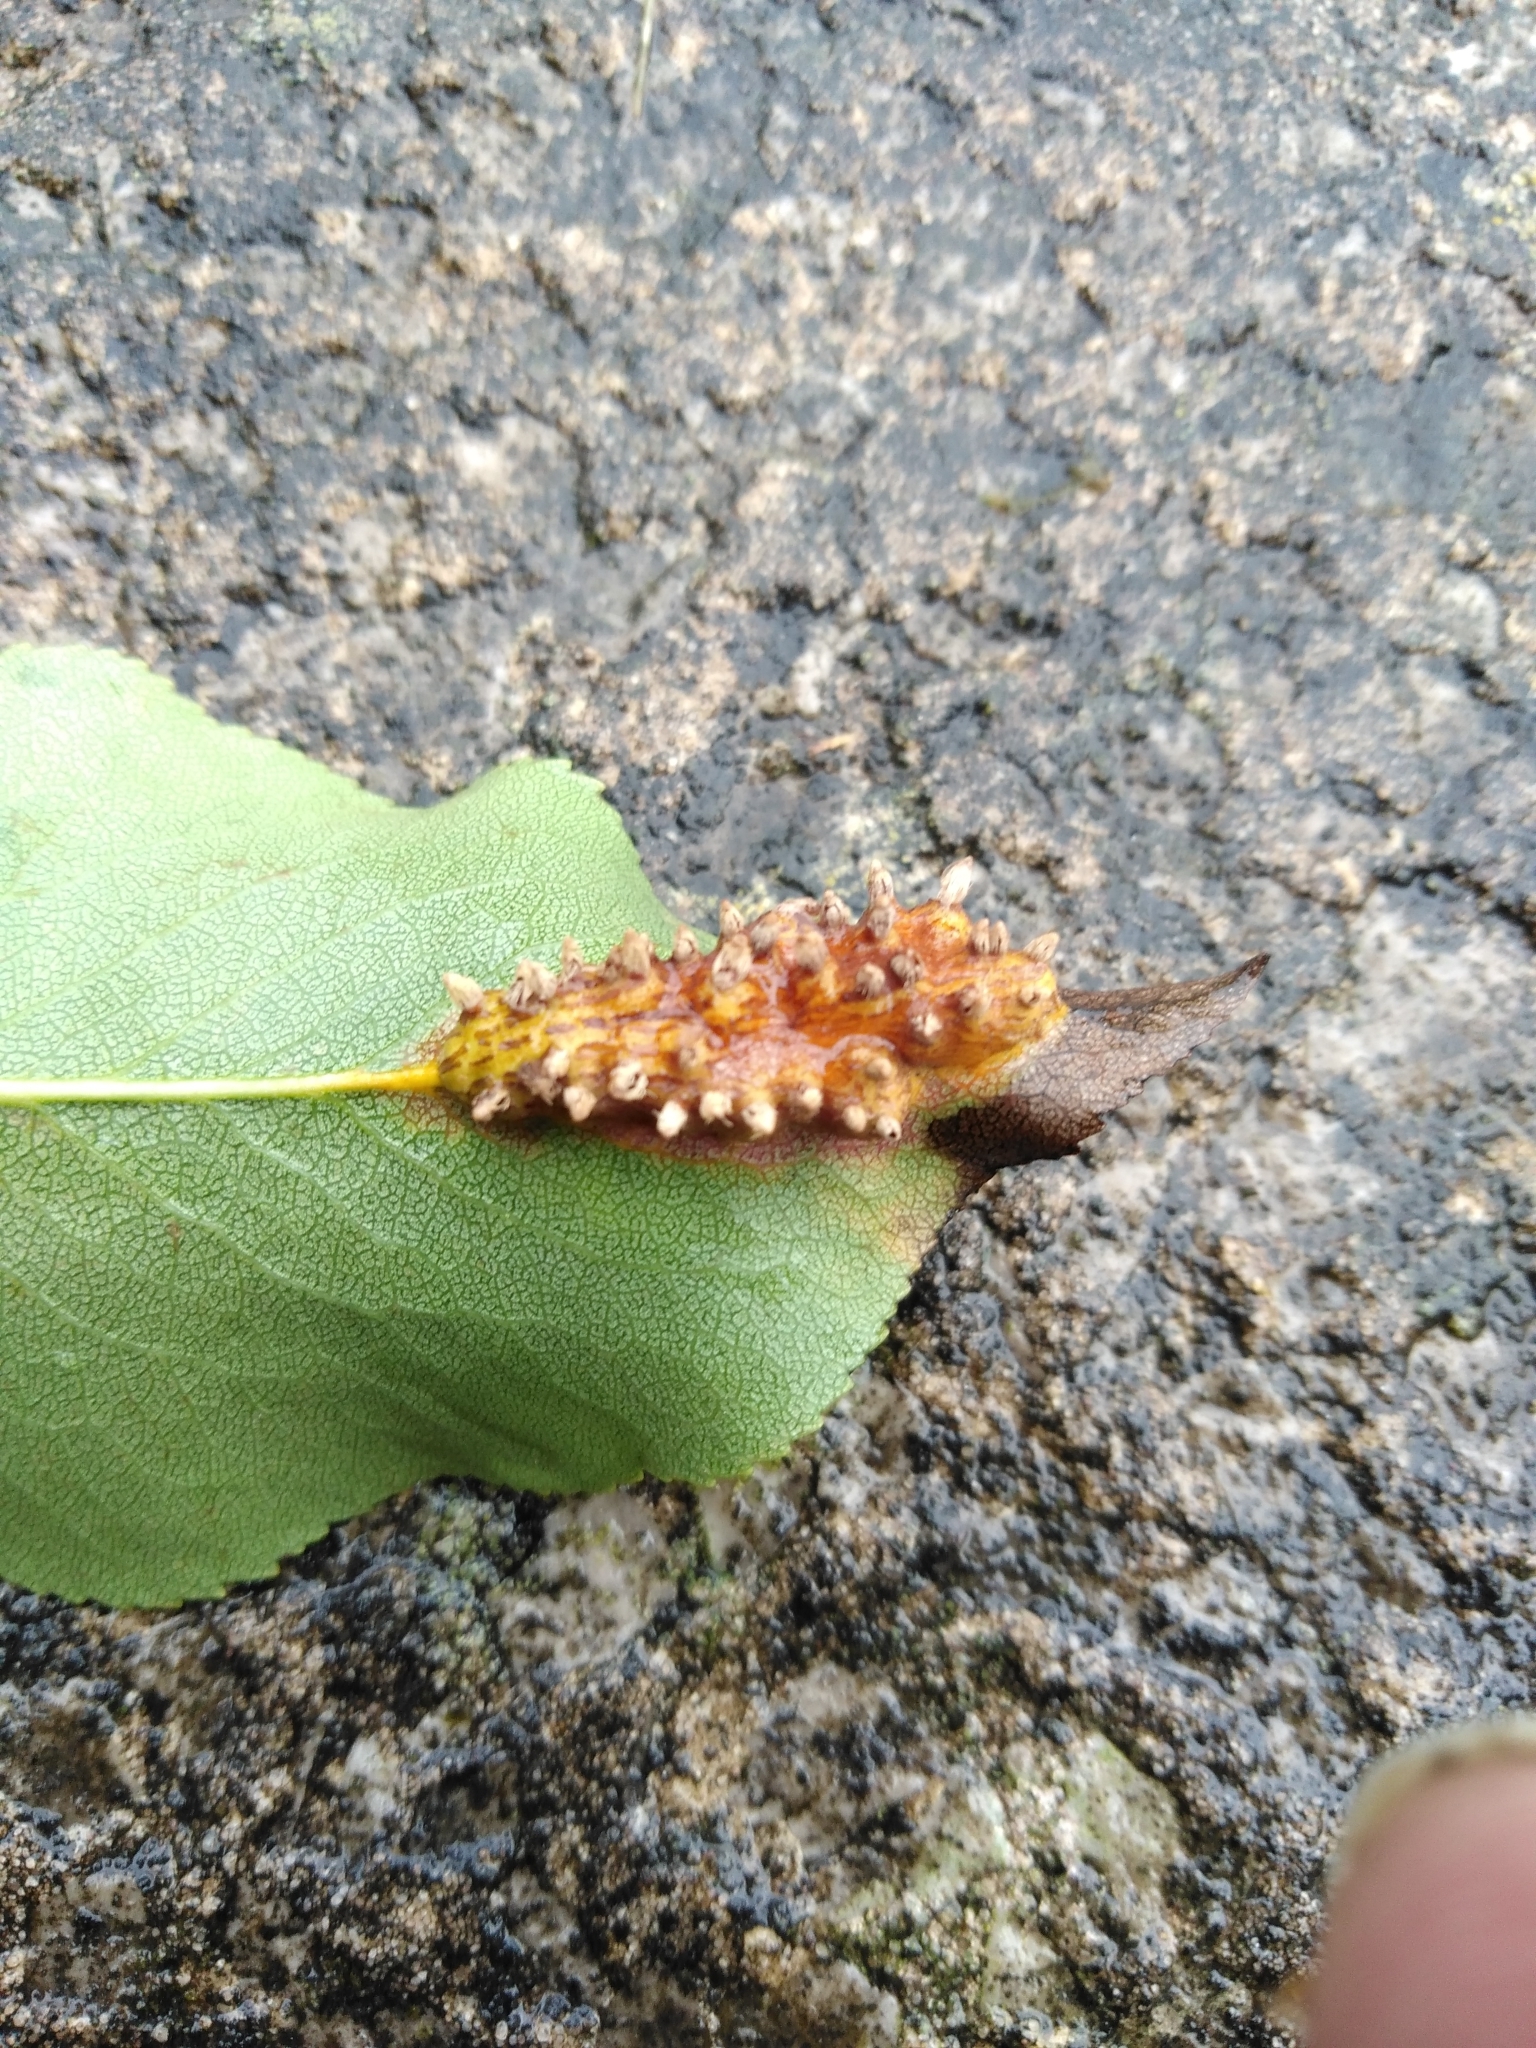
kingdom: Fungi
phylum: Basidiomycota
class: Pucciniomycetes
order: Pucciniales
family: Gymnosporangiaceae
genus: Gymnosporangium
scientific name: Gymnosporangium sabinae
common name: Pear trellis rust fungus
